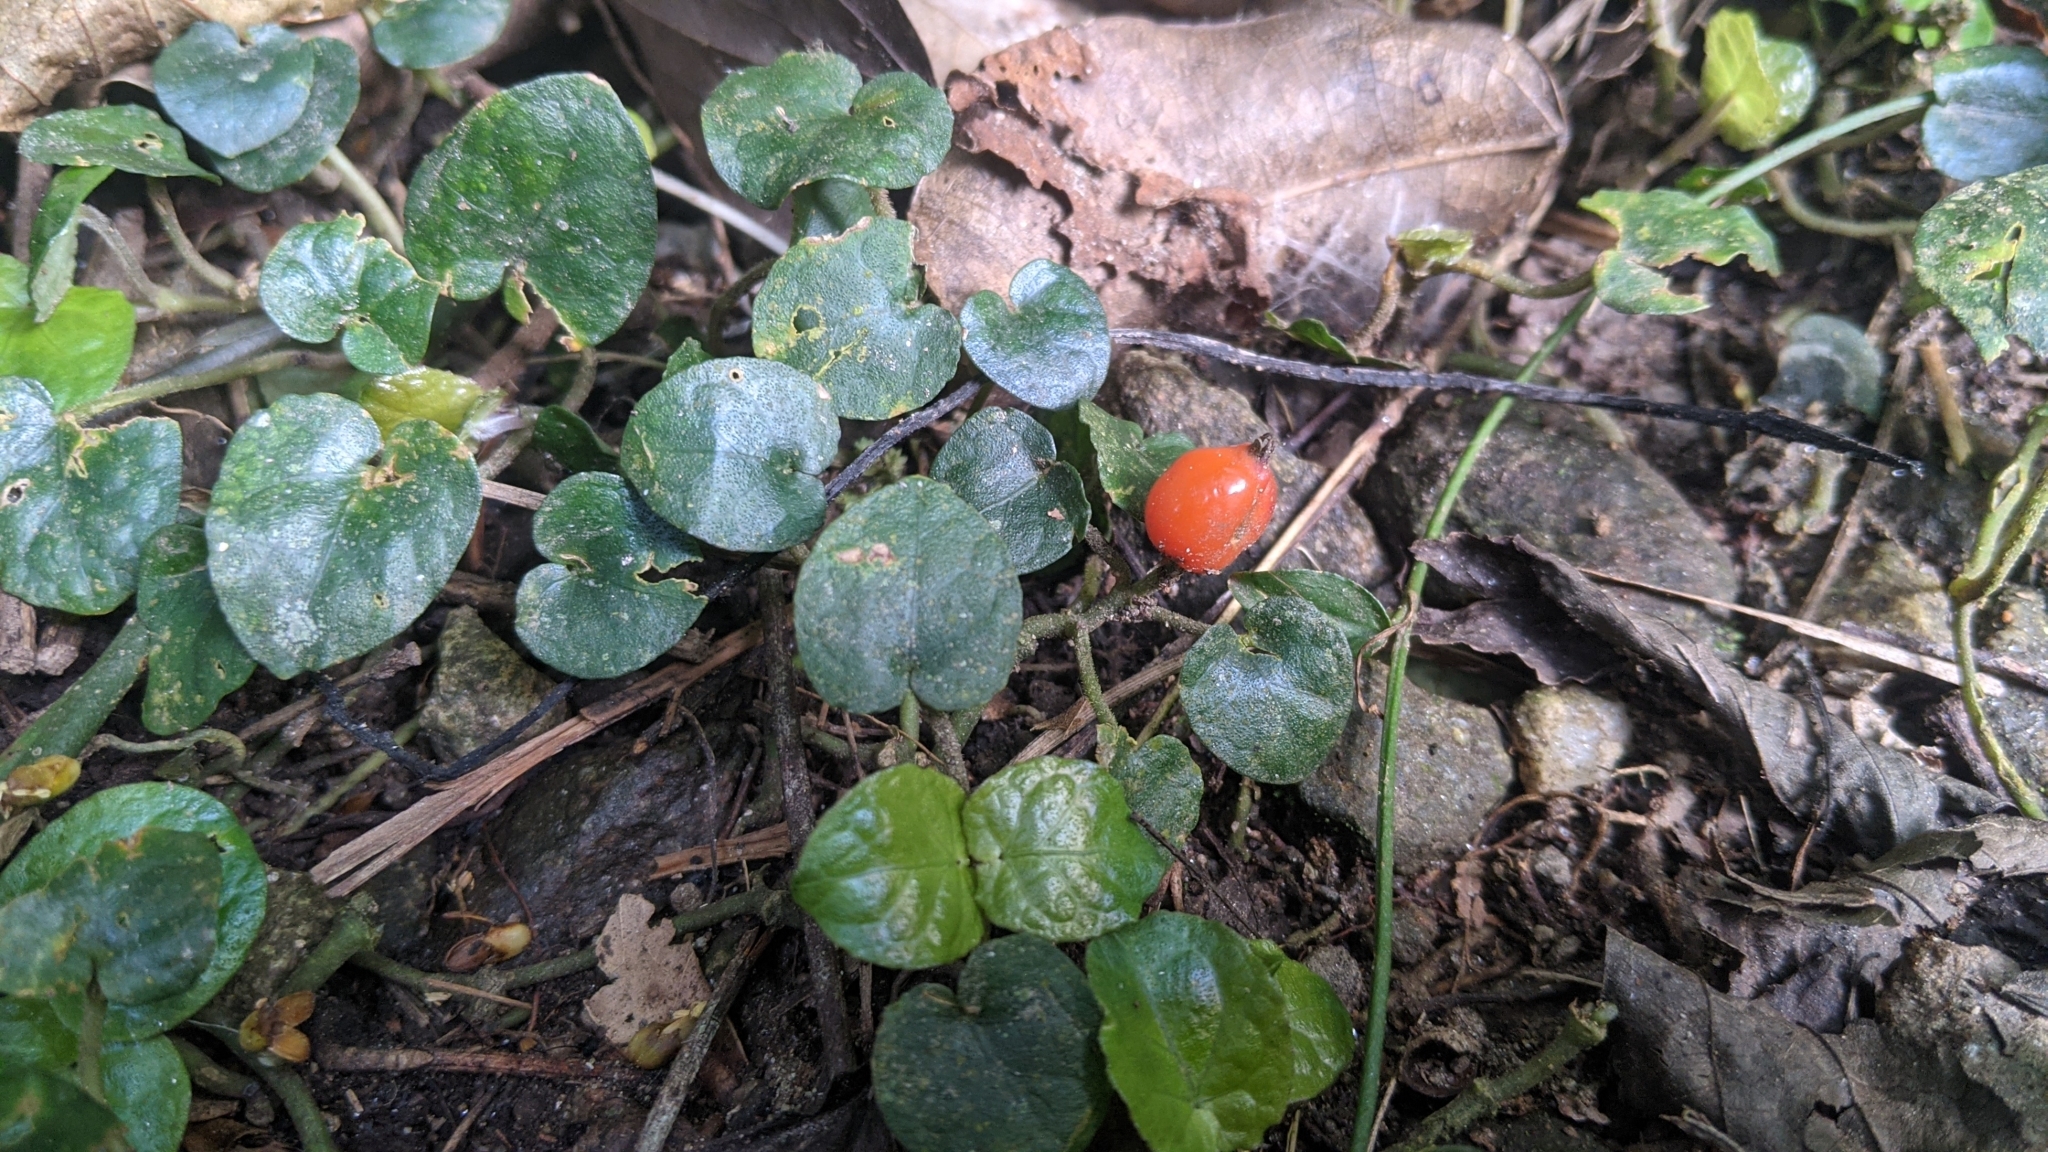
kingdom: Plantae
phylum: Tracheophyta
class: Magnoliopsida
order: Gentianales
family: Rubiaceae
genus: Geophila
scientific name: Geophila herbacea
